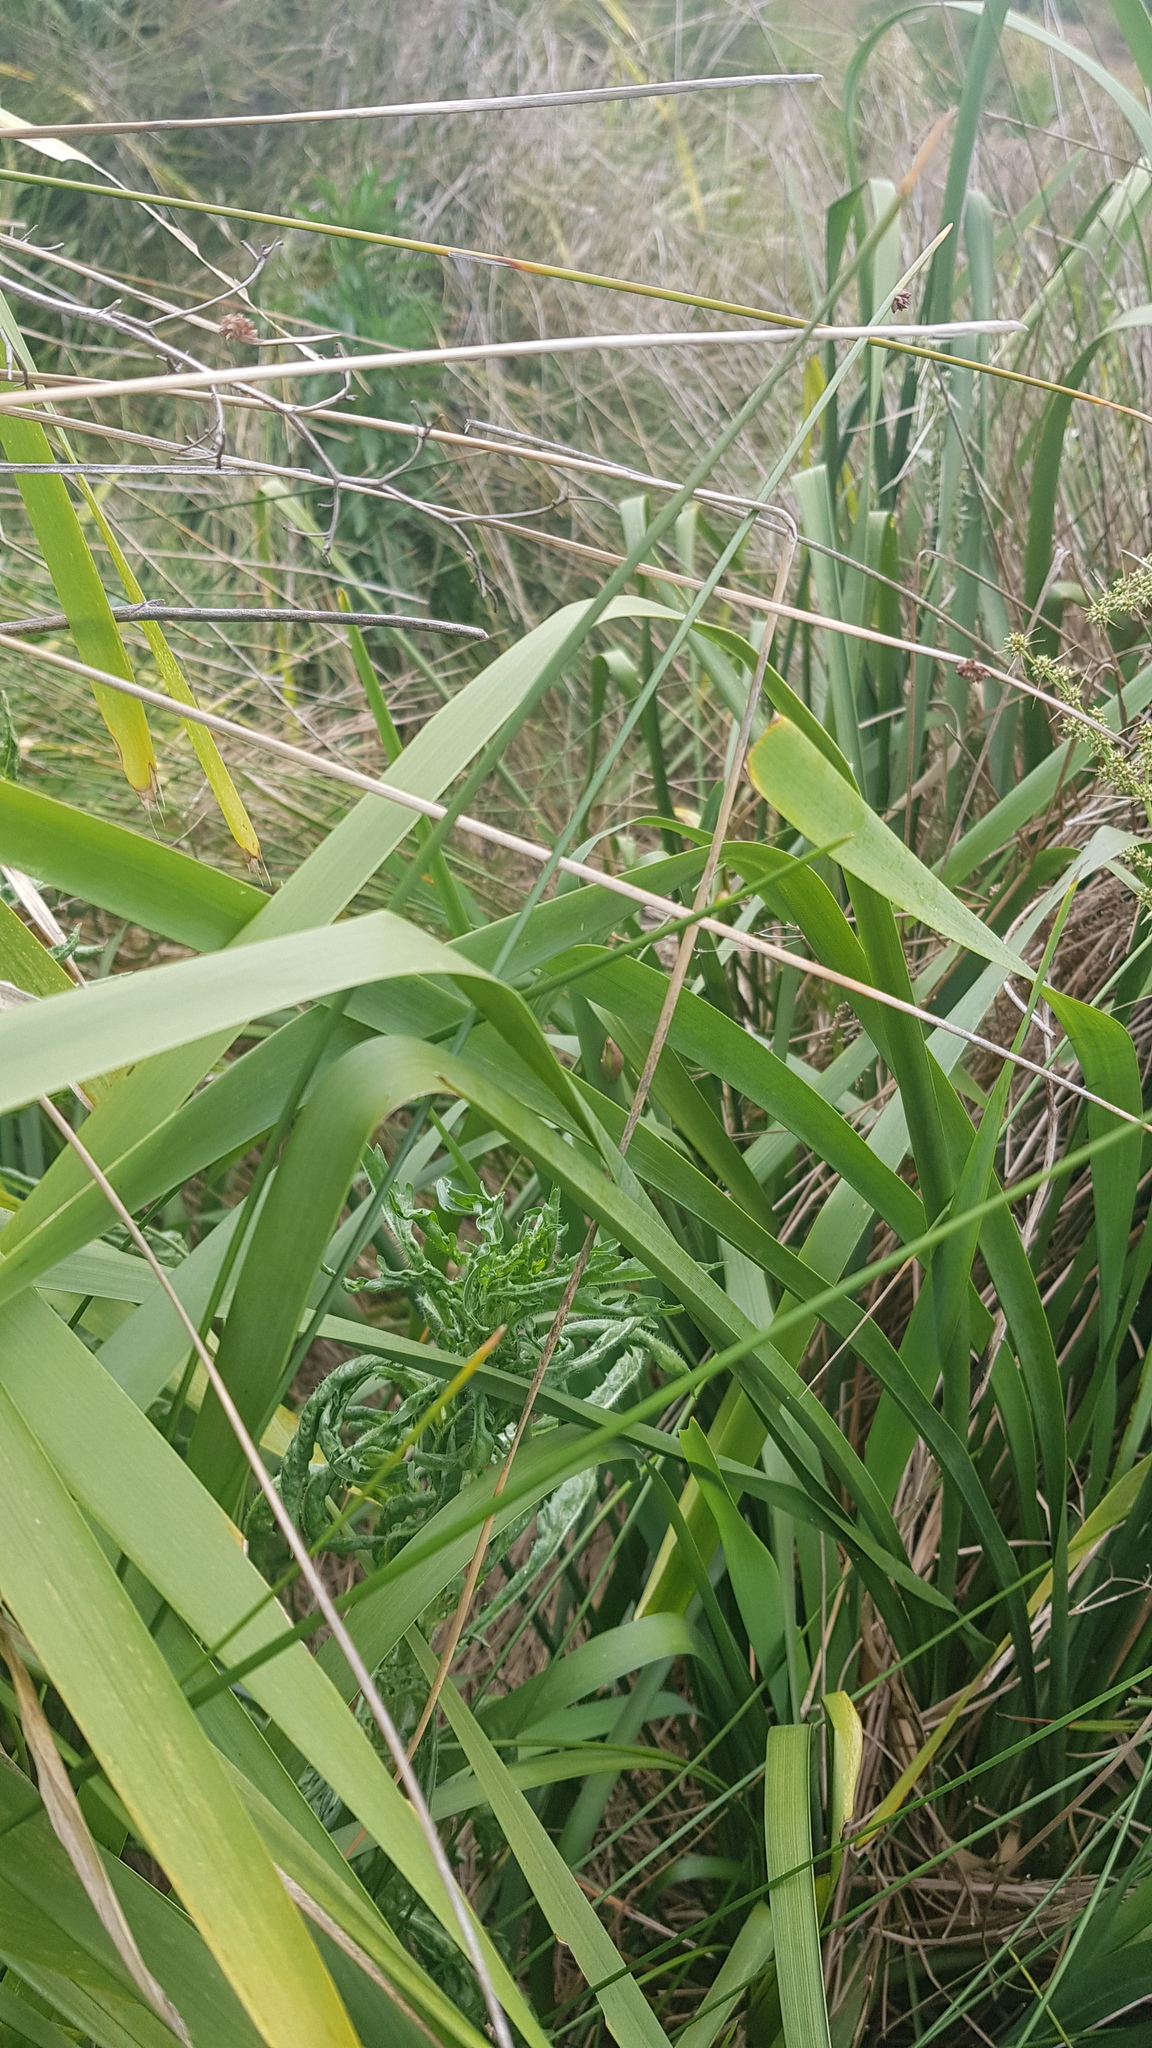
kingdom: Animalia
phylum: Chordata
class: Amphibia
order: Anura
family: Pelodryadidae
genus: Litoria
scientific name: Litoria fallax
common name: Eastern dwarf treefrog
